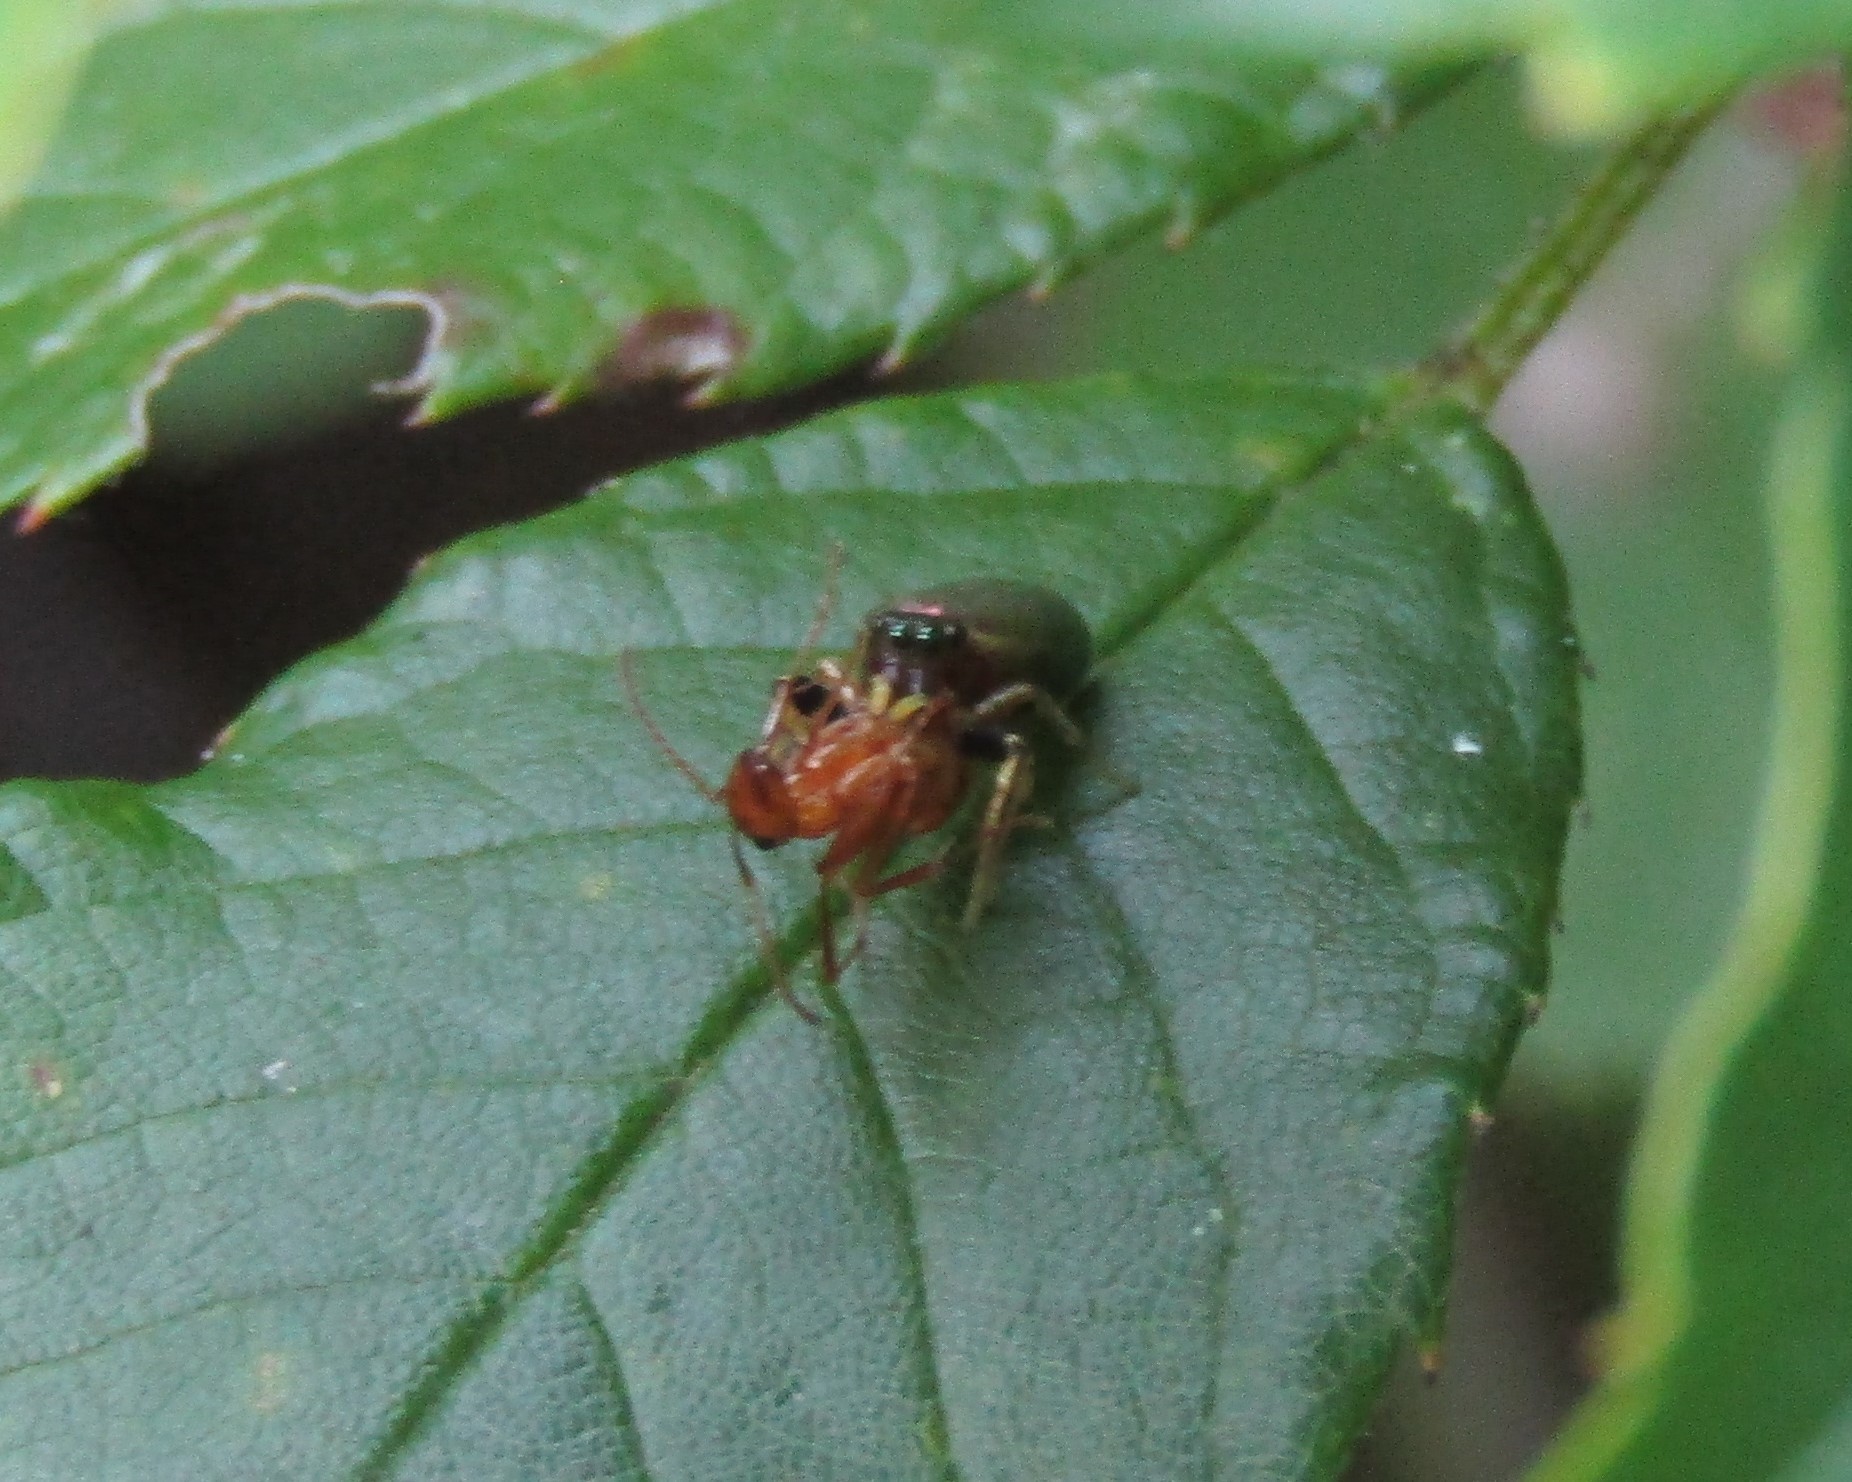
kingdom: Animalia
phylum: Arthropoda
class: Arachnida
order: Araneae
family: Salticidae
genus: Tutelina
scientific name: Tutelina elegans
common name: Thin-spined jumping spider
